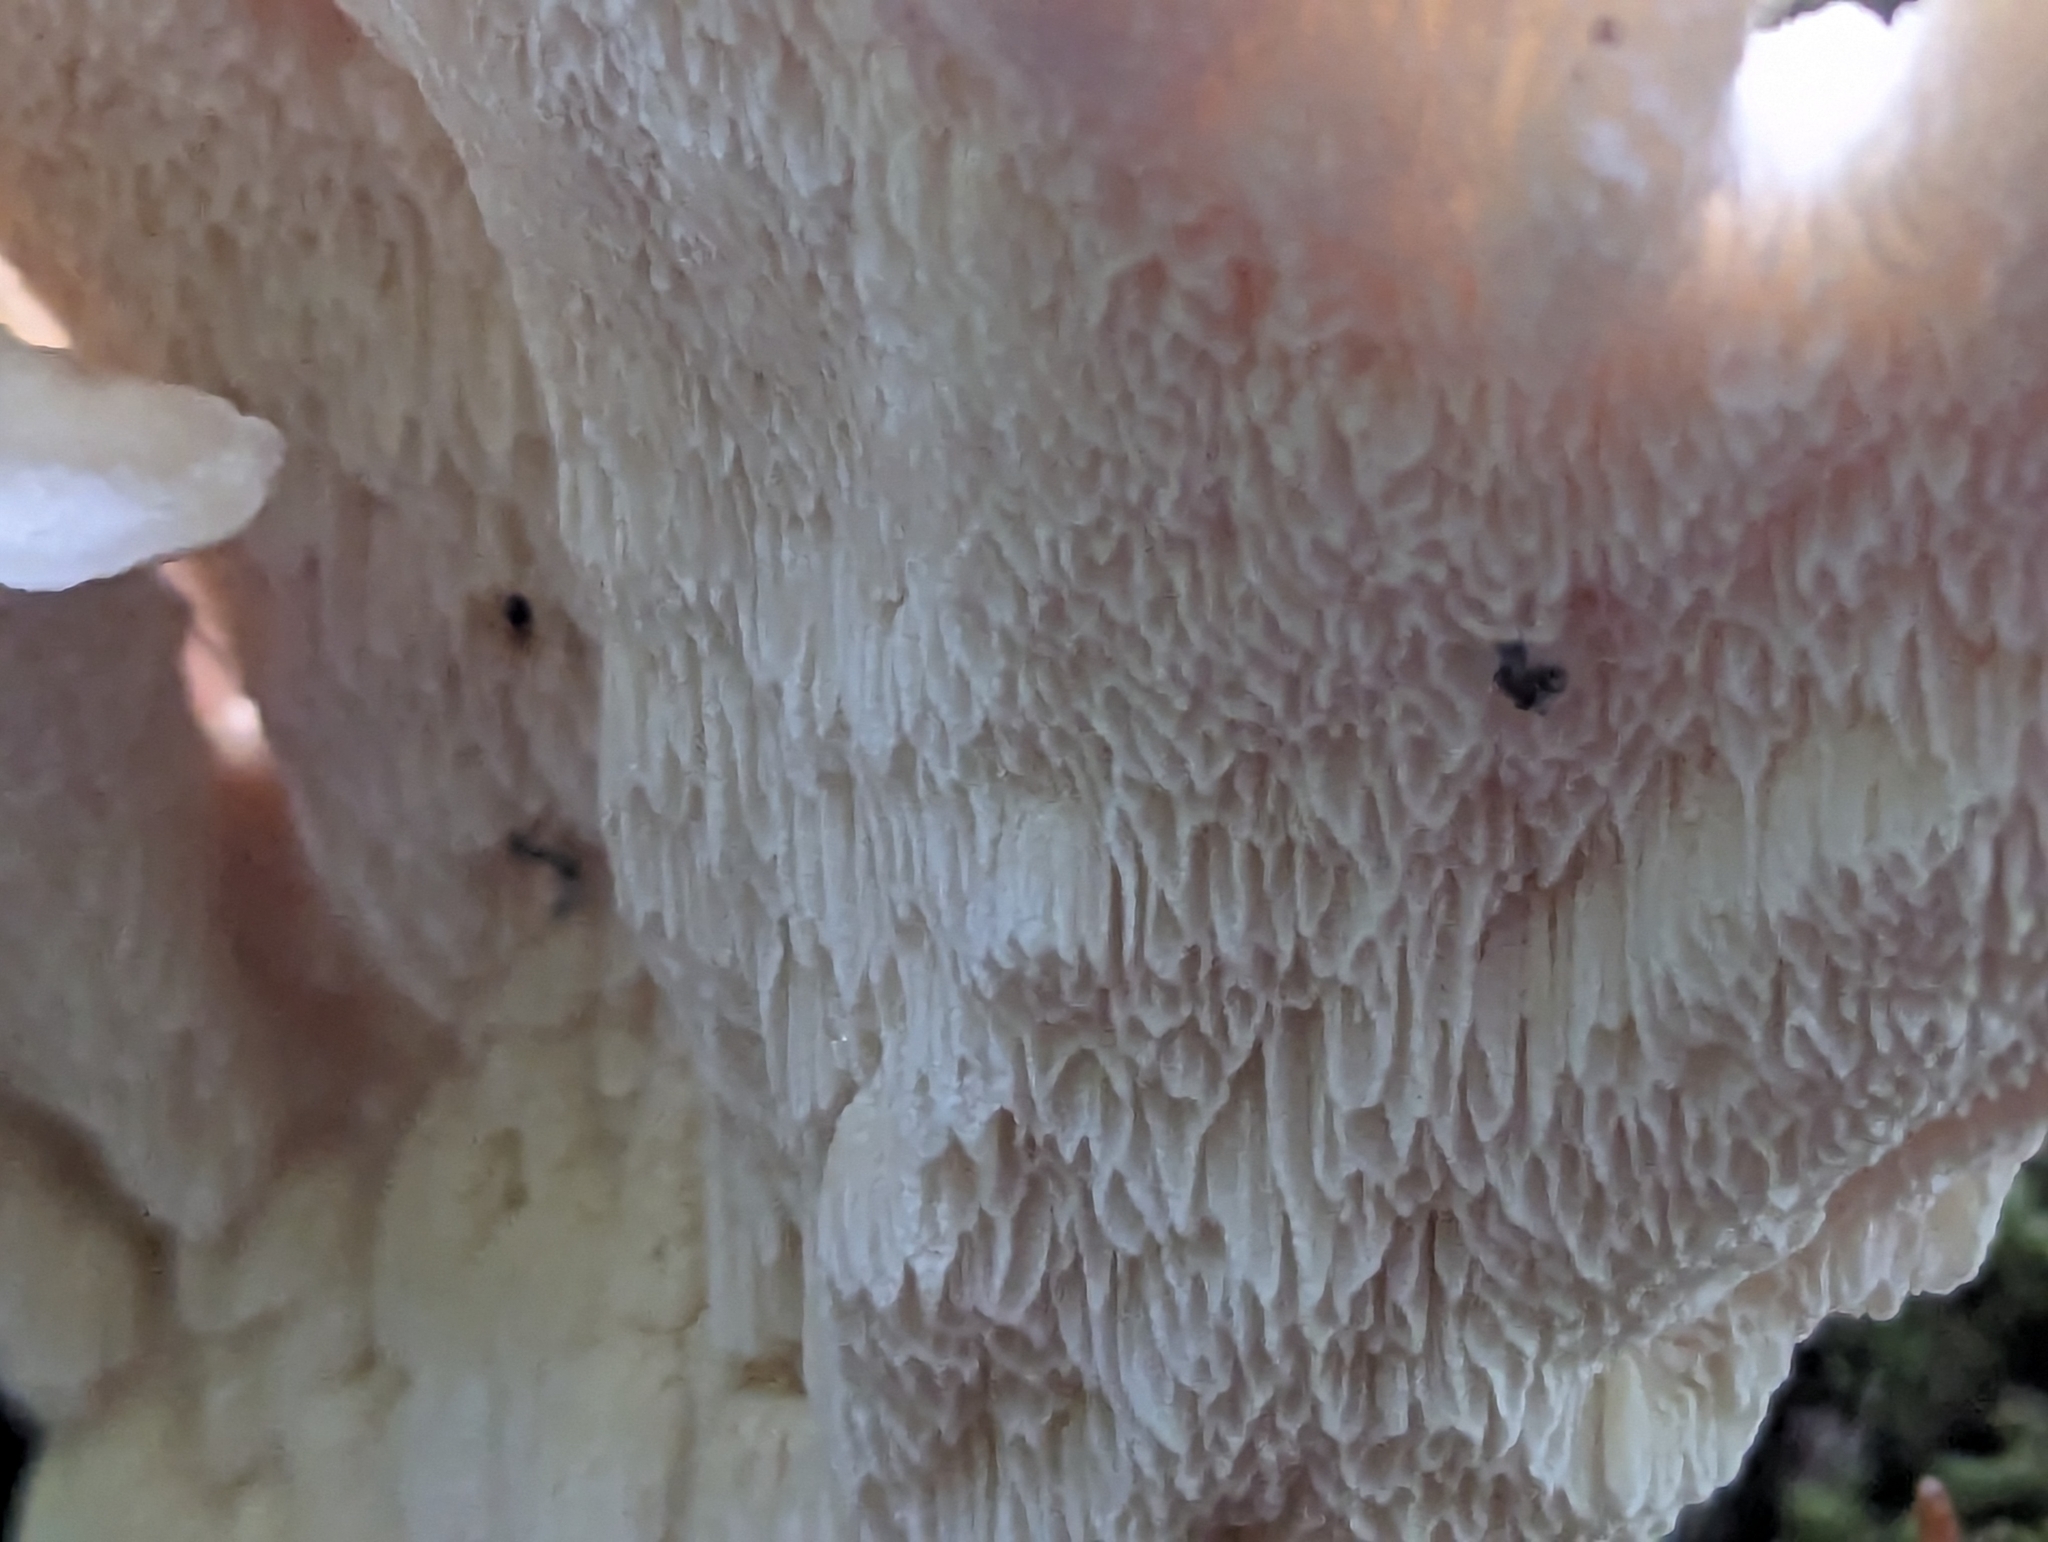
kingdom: Fungi
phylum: Basidiomycota
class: Agaricomycetes
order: Russulales
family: Bondarzewiaceae
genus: Bondarzewia
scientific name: Bondarzewia berkeleyi
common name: Berkeley's polypore
